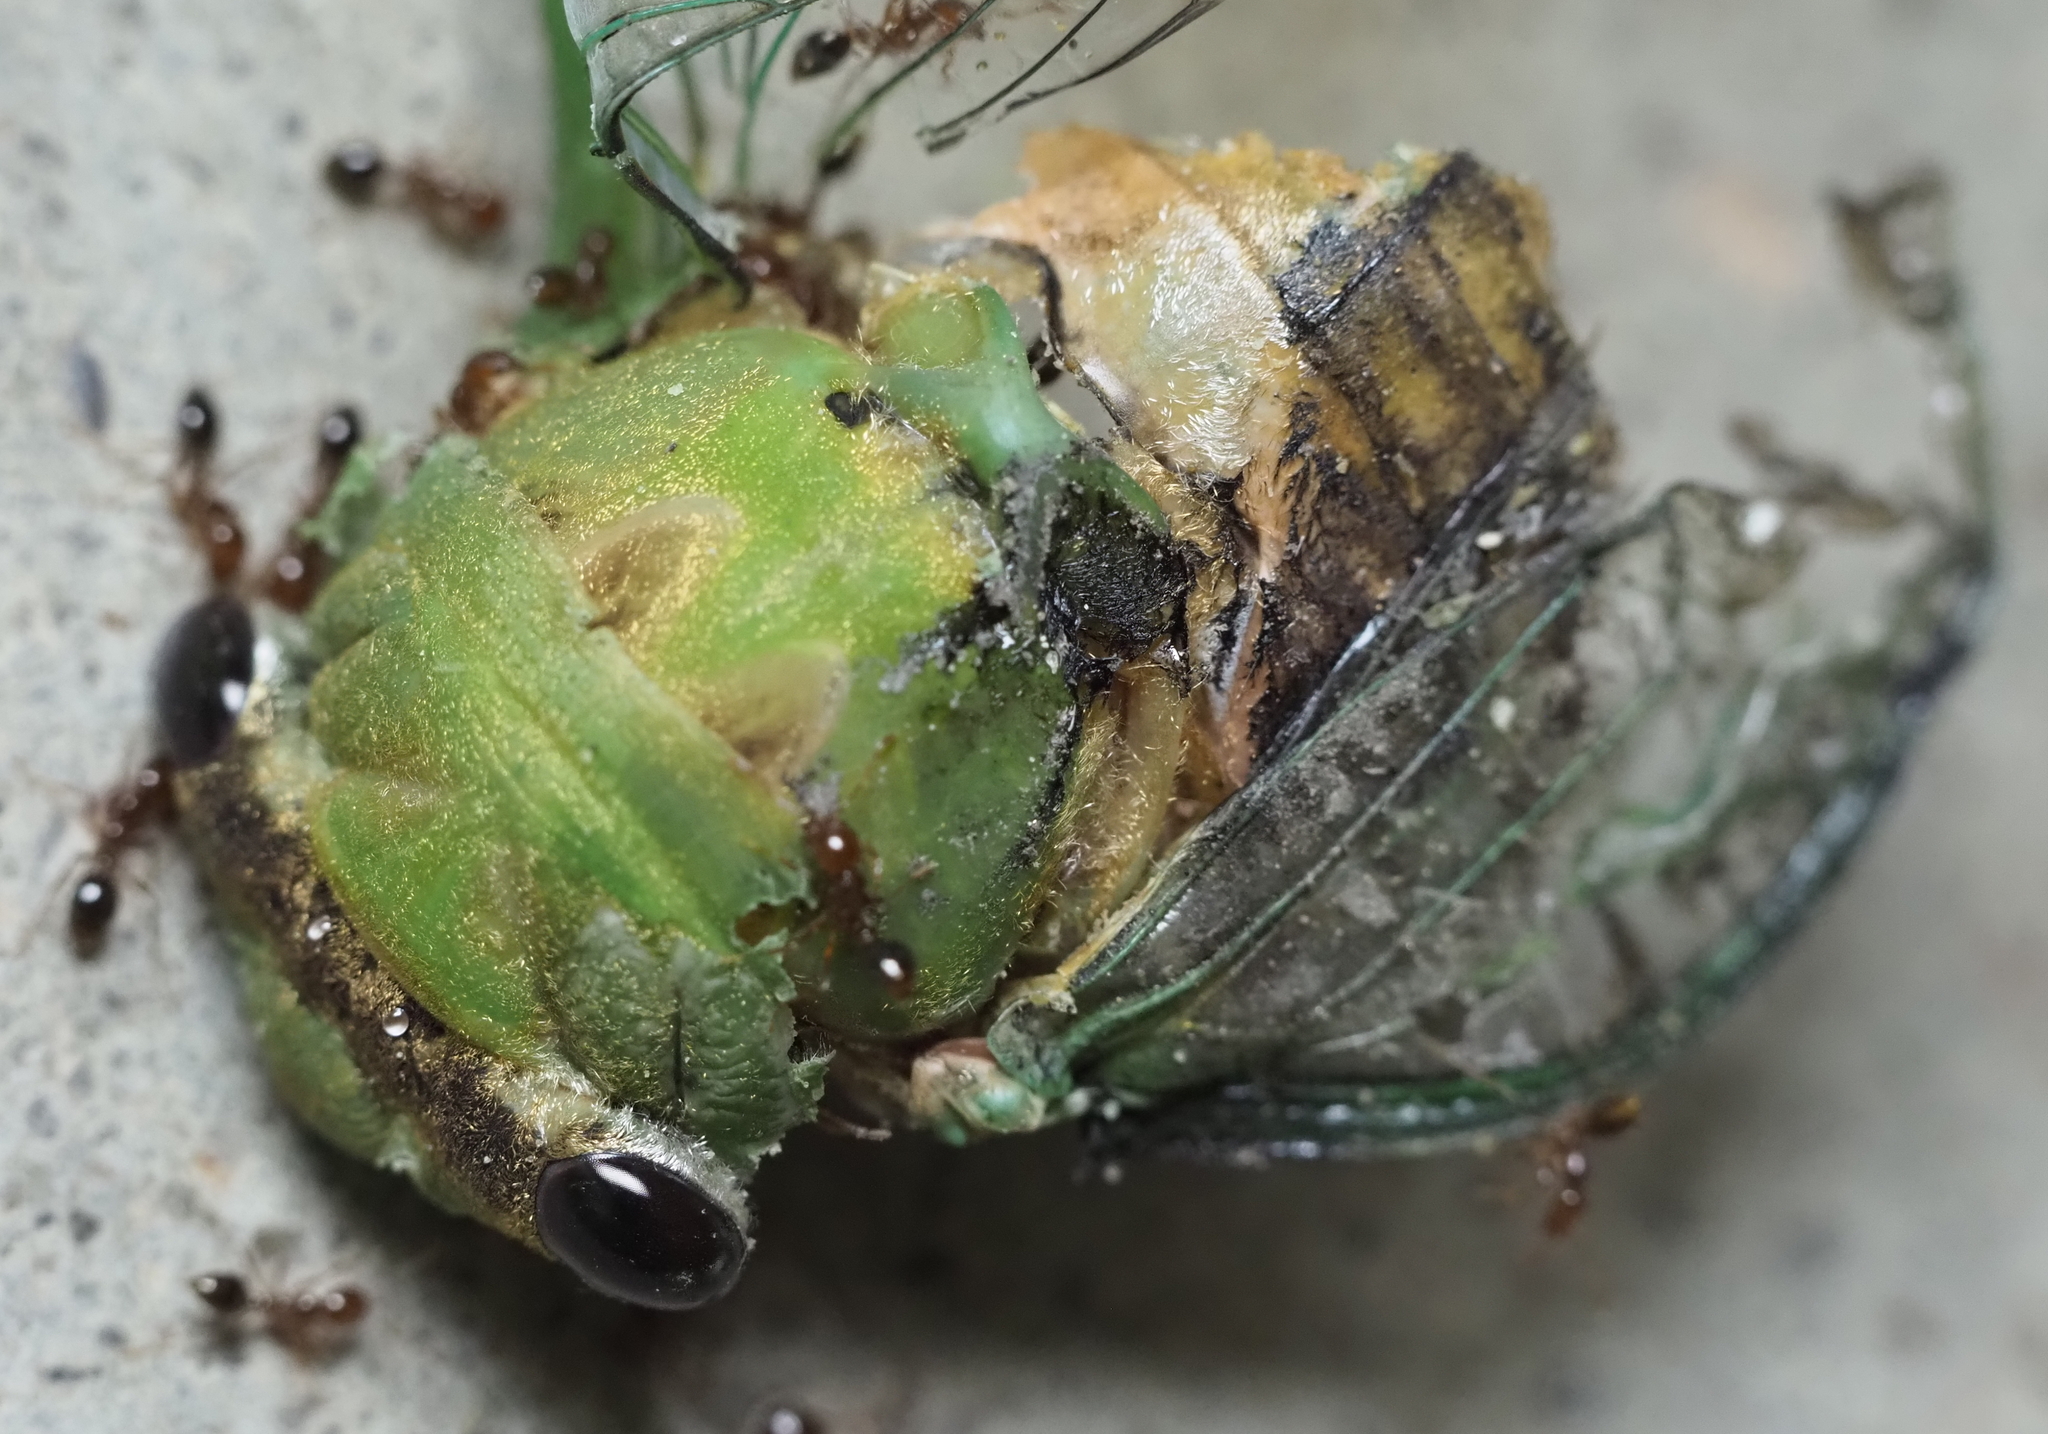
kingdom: Animalia
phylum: Arthropoda
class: Insecta
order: Hemiptera
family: Cicadidae
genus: Neotibicen
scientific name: Neotibicen superbus
